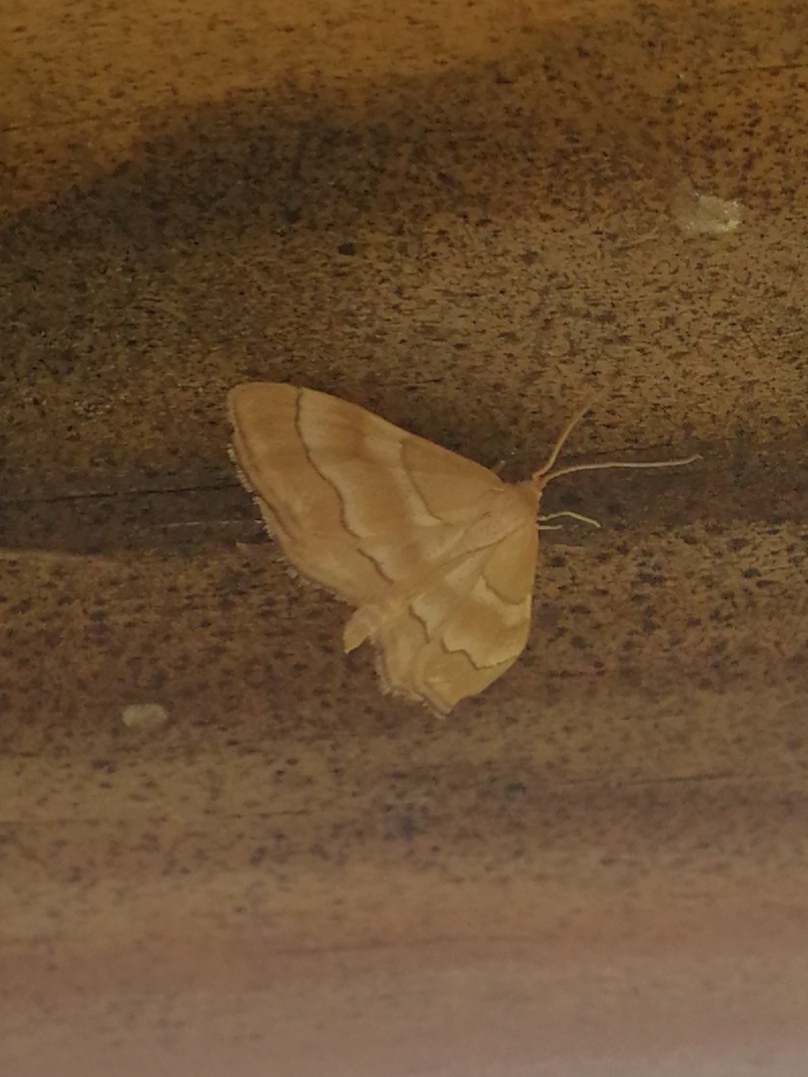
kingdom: Animalia
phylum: Arthropoda
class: Insecta
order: Lepidoptera
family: Geometridae
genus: Idaea
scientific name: Idaea circuitaria
